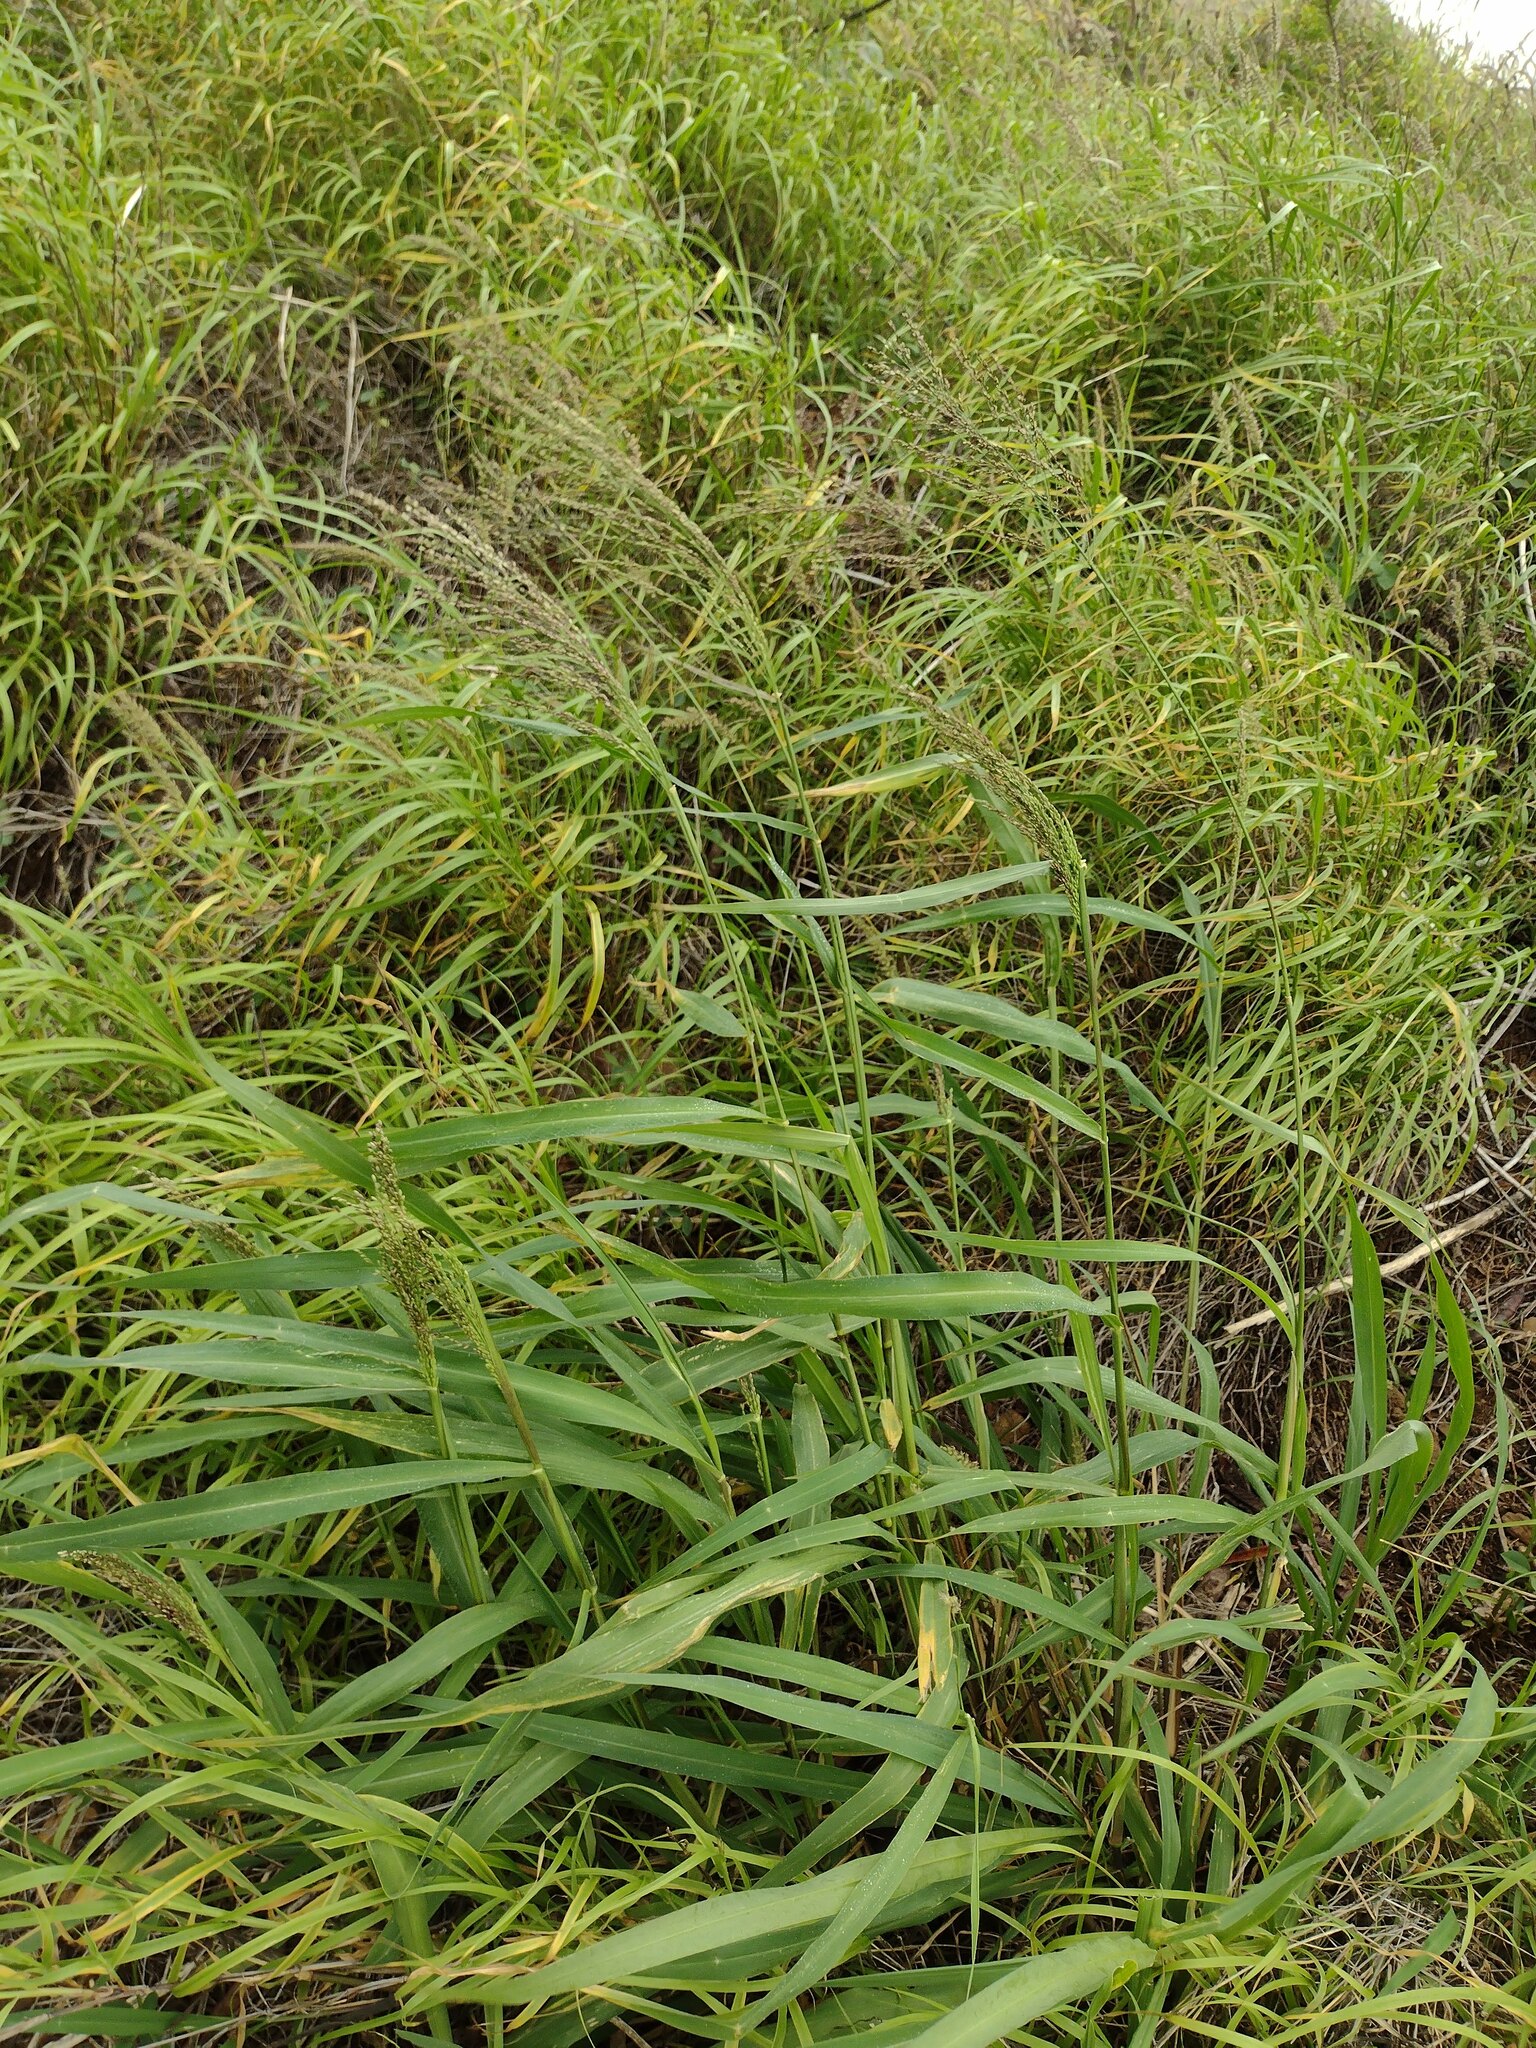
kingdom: Plantae
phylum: Tracheophyta
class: Liliopsida
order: Poales
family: Poaceae
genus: Megathyrsus
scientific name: Megathyrsus maximus
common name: Guineagrass
